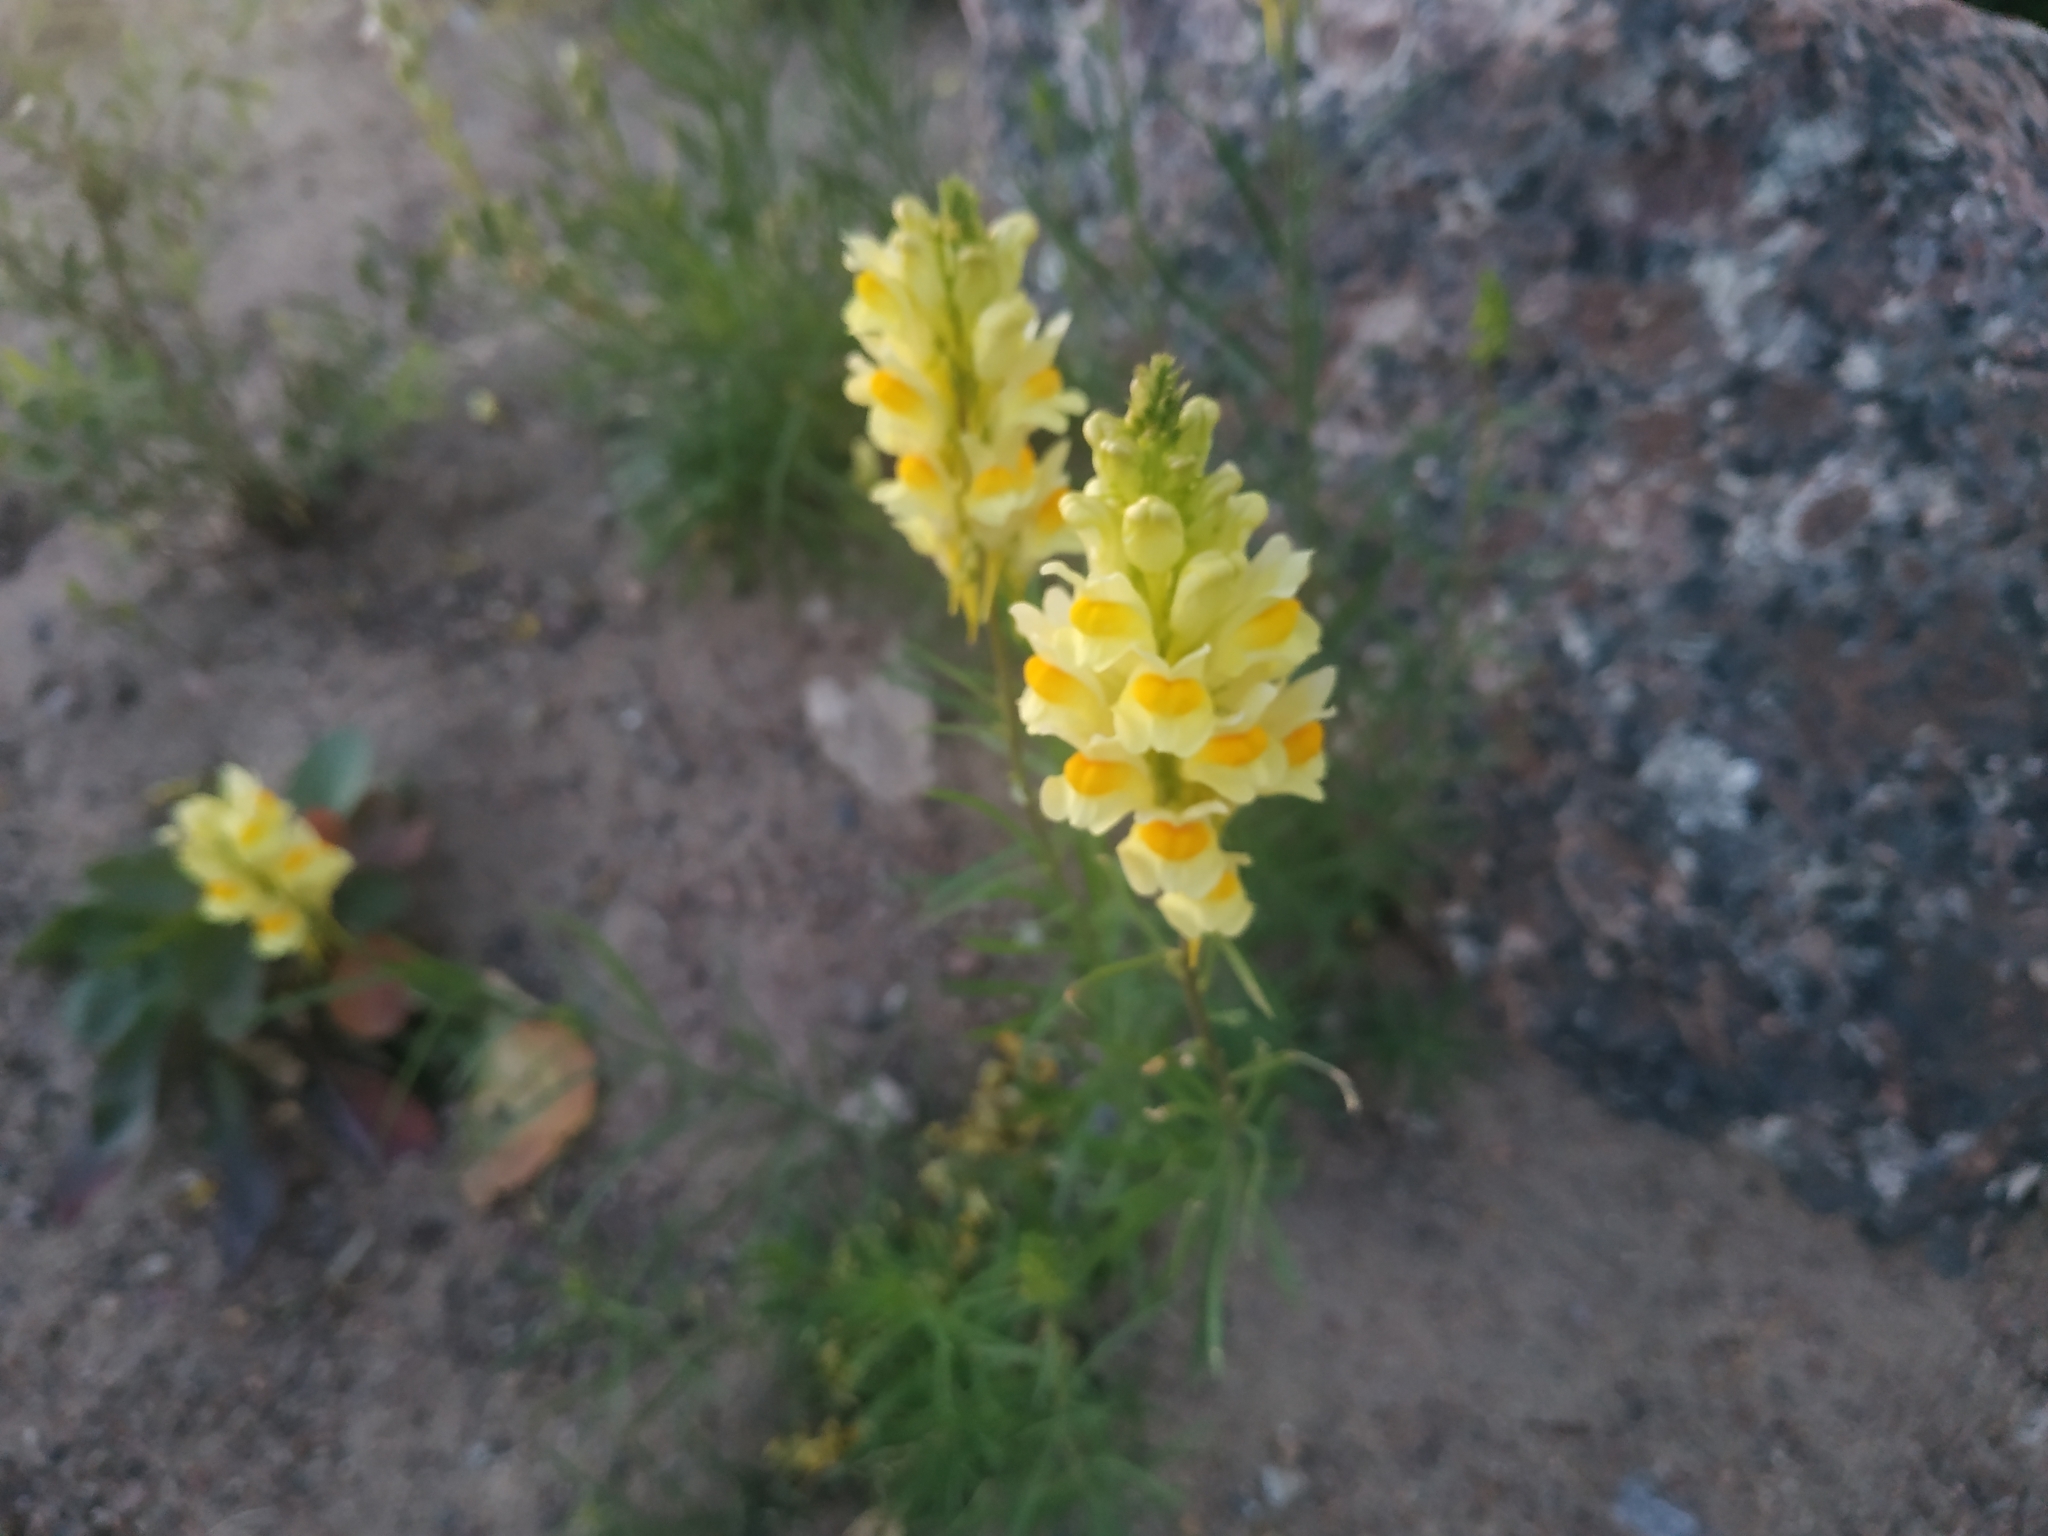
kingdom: Plantae
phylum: Tracheophyta
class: Magnoliopsida
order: Lamiales
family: Plantaginaceae
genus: Linaria
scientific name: Linaria vulgaris
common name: Butter and eggs
